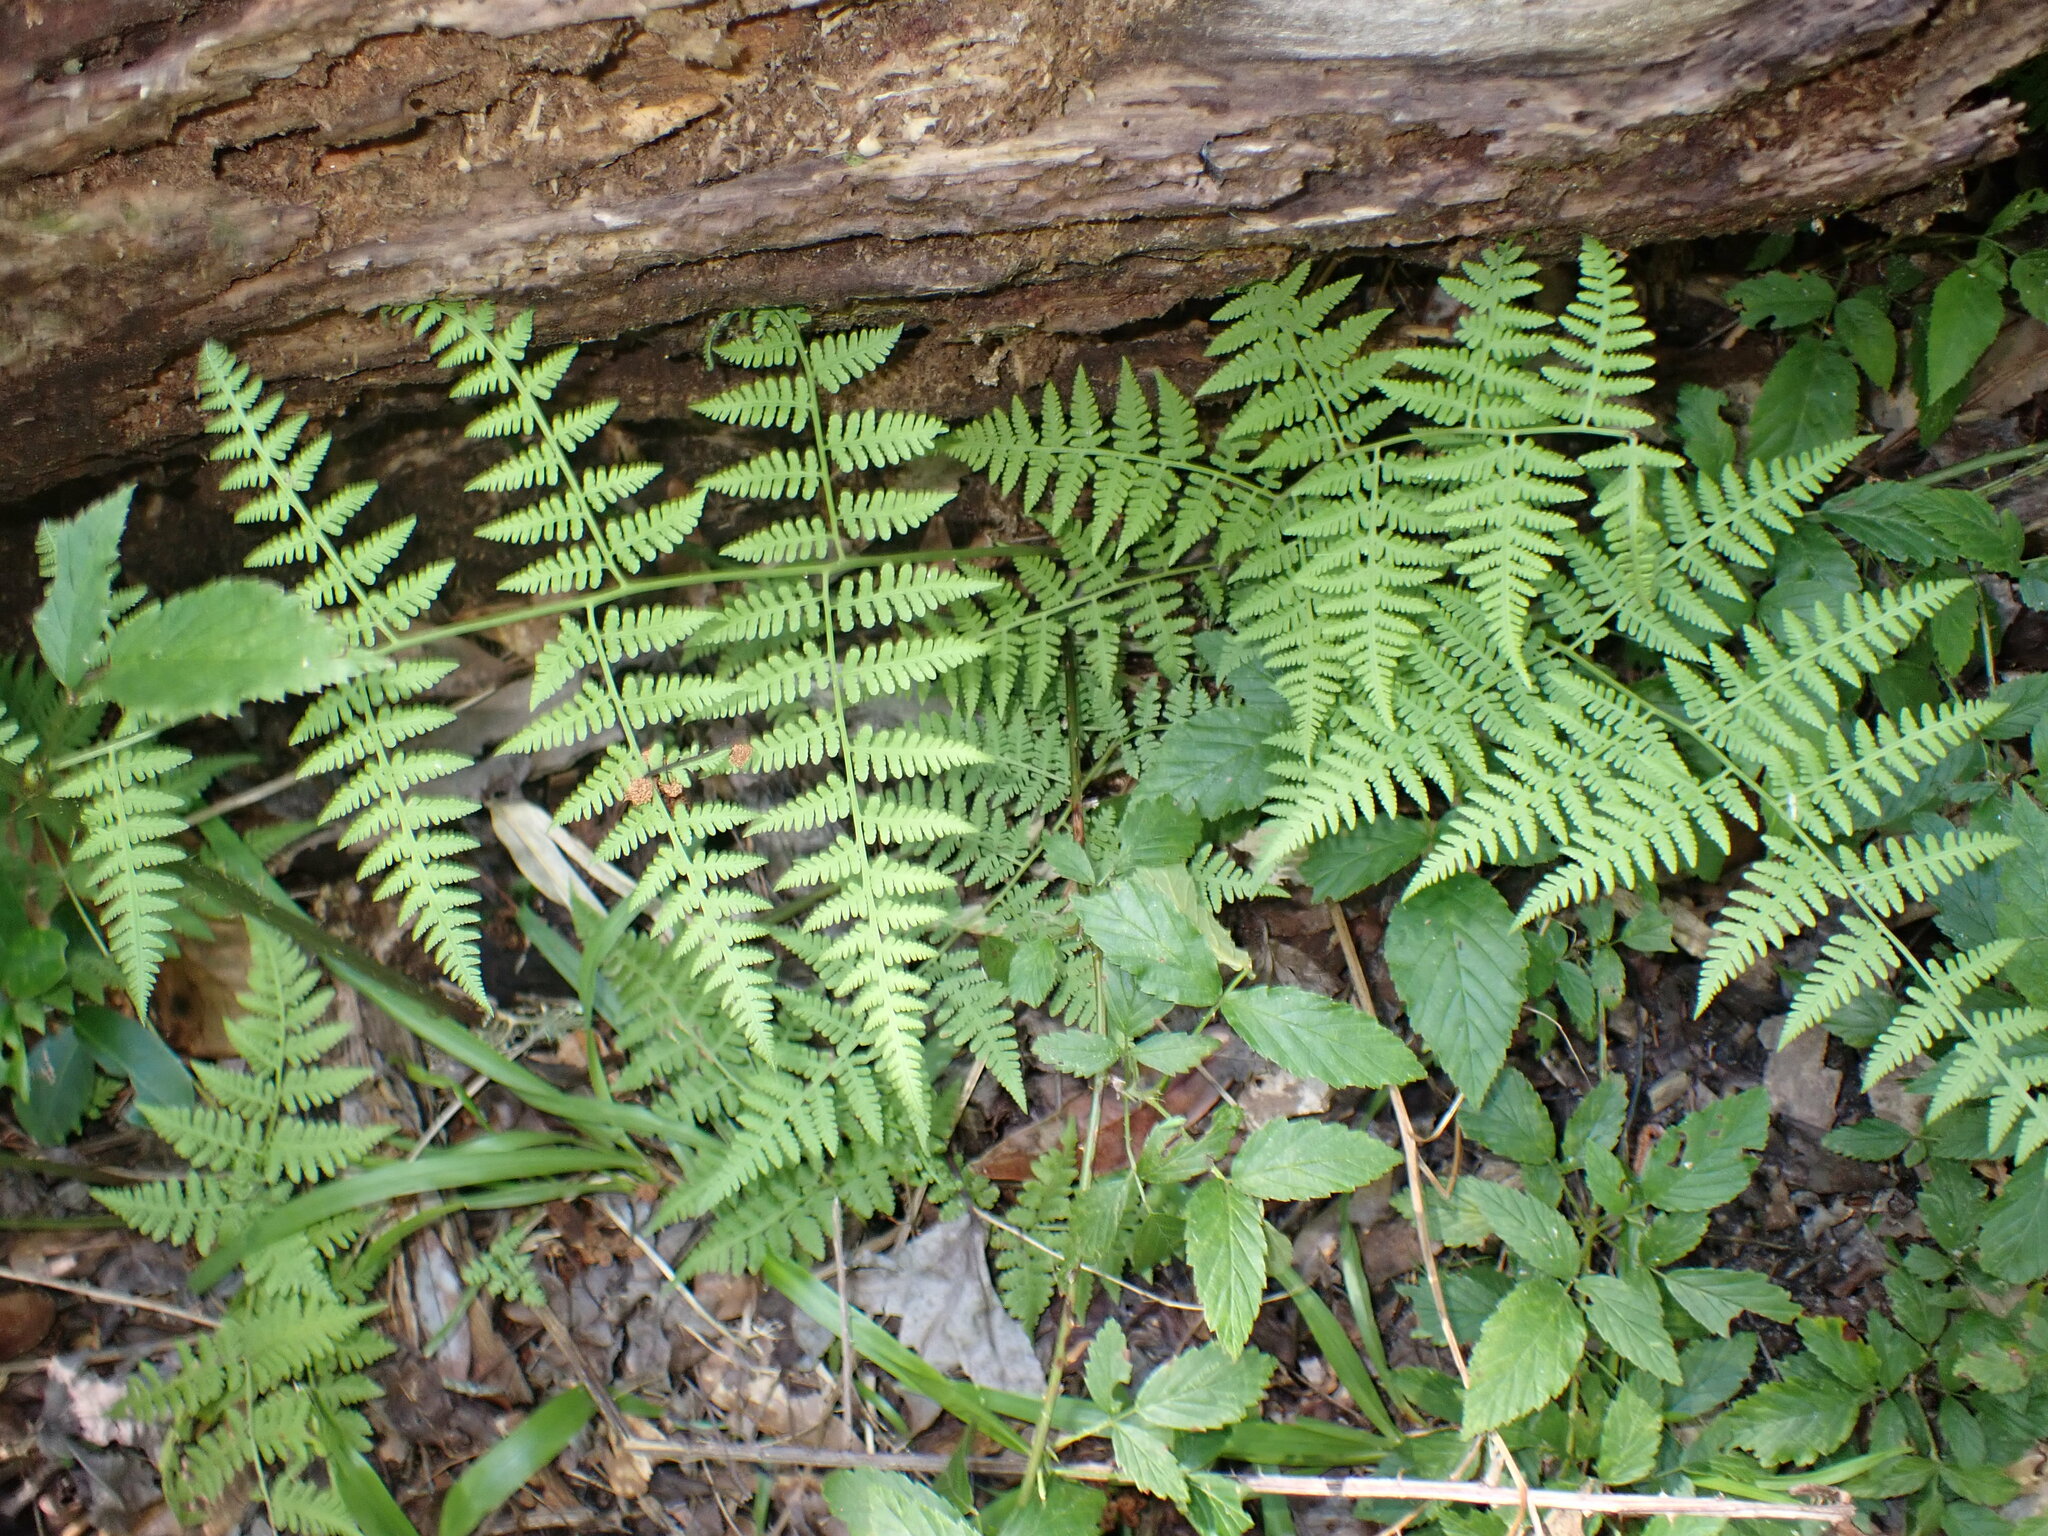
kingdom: Plantae
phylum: Tracheophyta
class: Polypodiopsida
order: Polypodiales
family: Thelypteridaceae
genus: Macrothelypteris
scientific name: Macrothelypteris torresiana
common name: Swordfern
